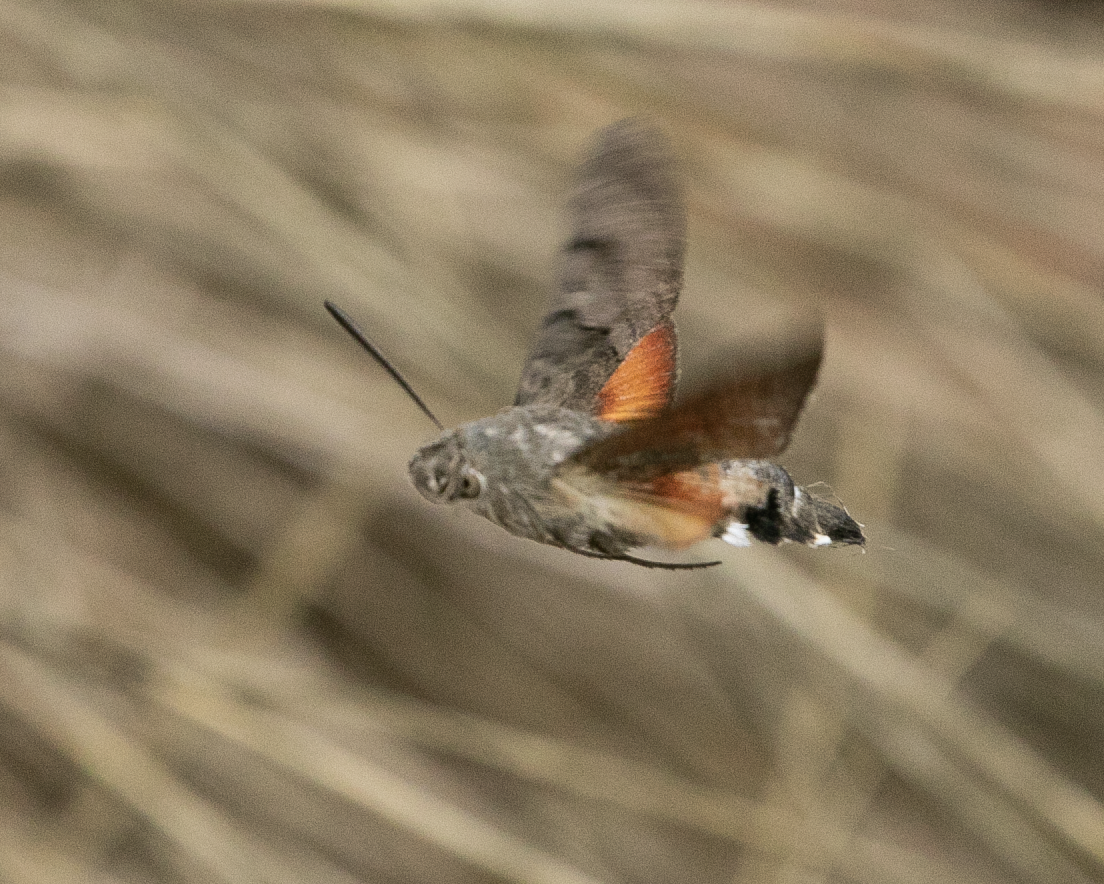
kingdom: Animalia
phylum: Arthropoda
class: Insecta
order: Lepidoptera
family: Sphingidae
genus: Macroglossum
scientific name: Macroglossum stellatarum
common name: Humming-bird hawk-moth
